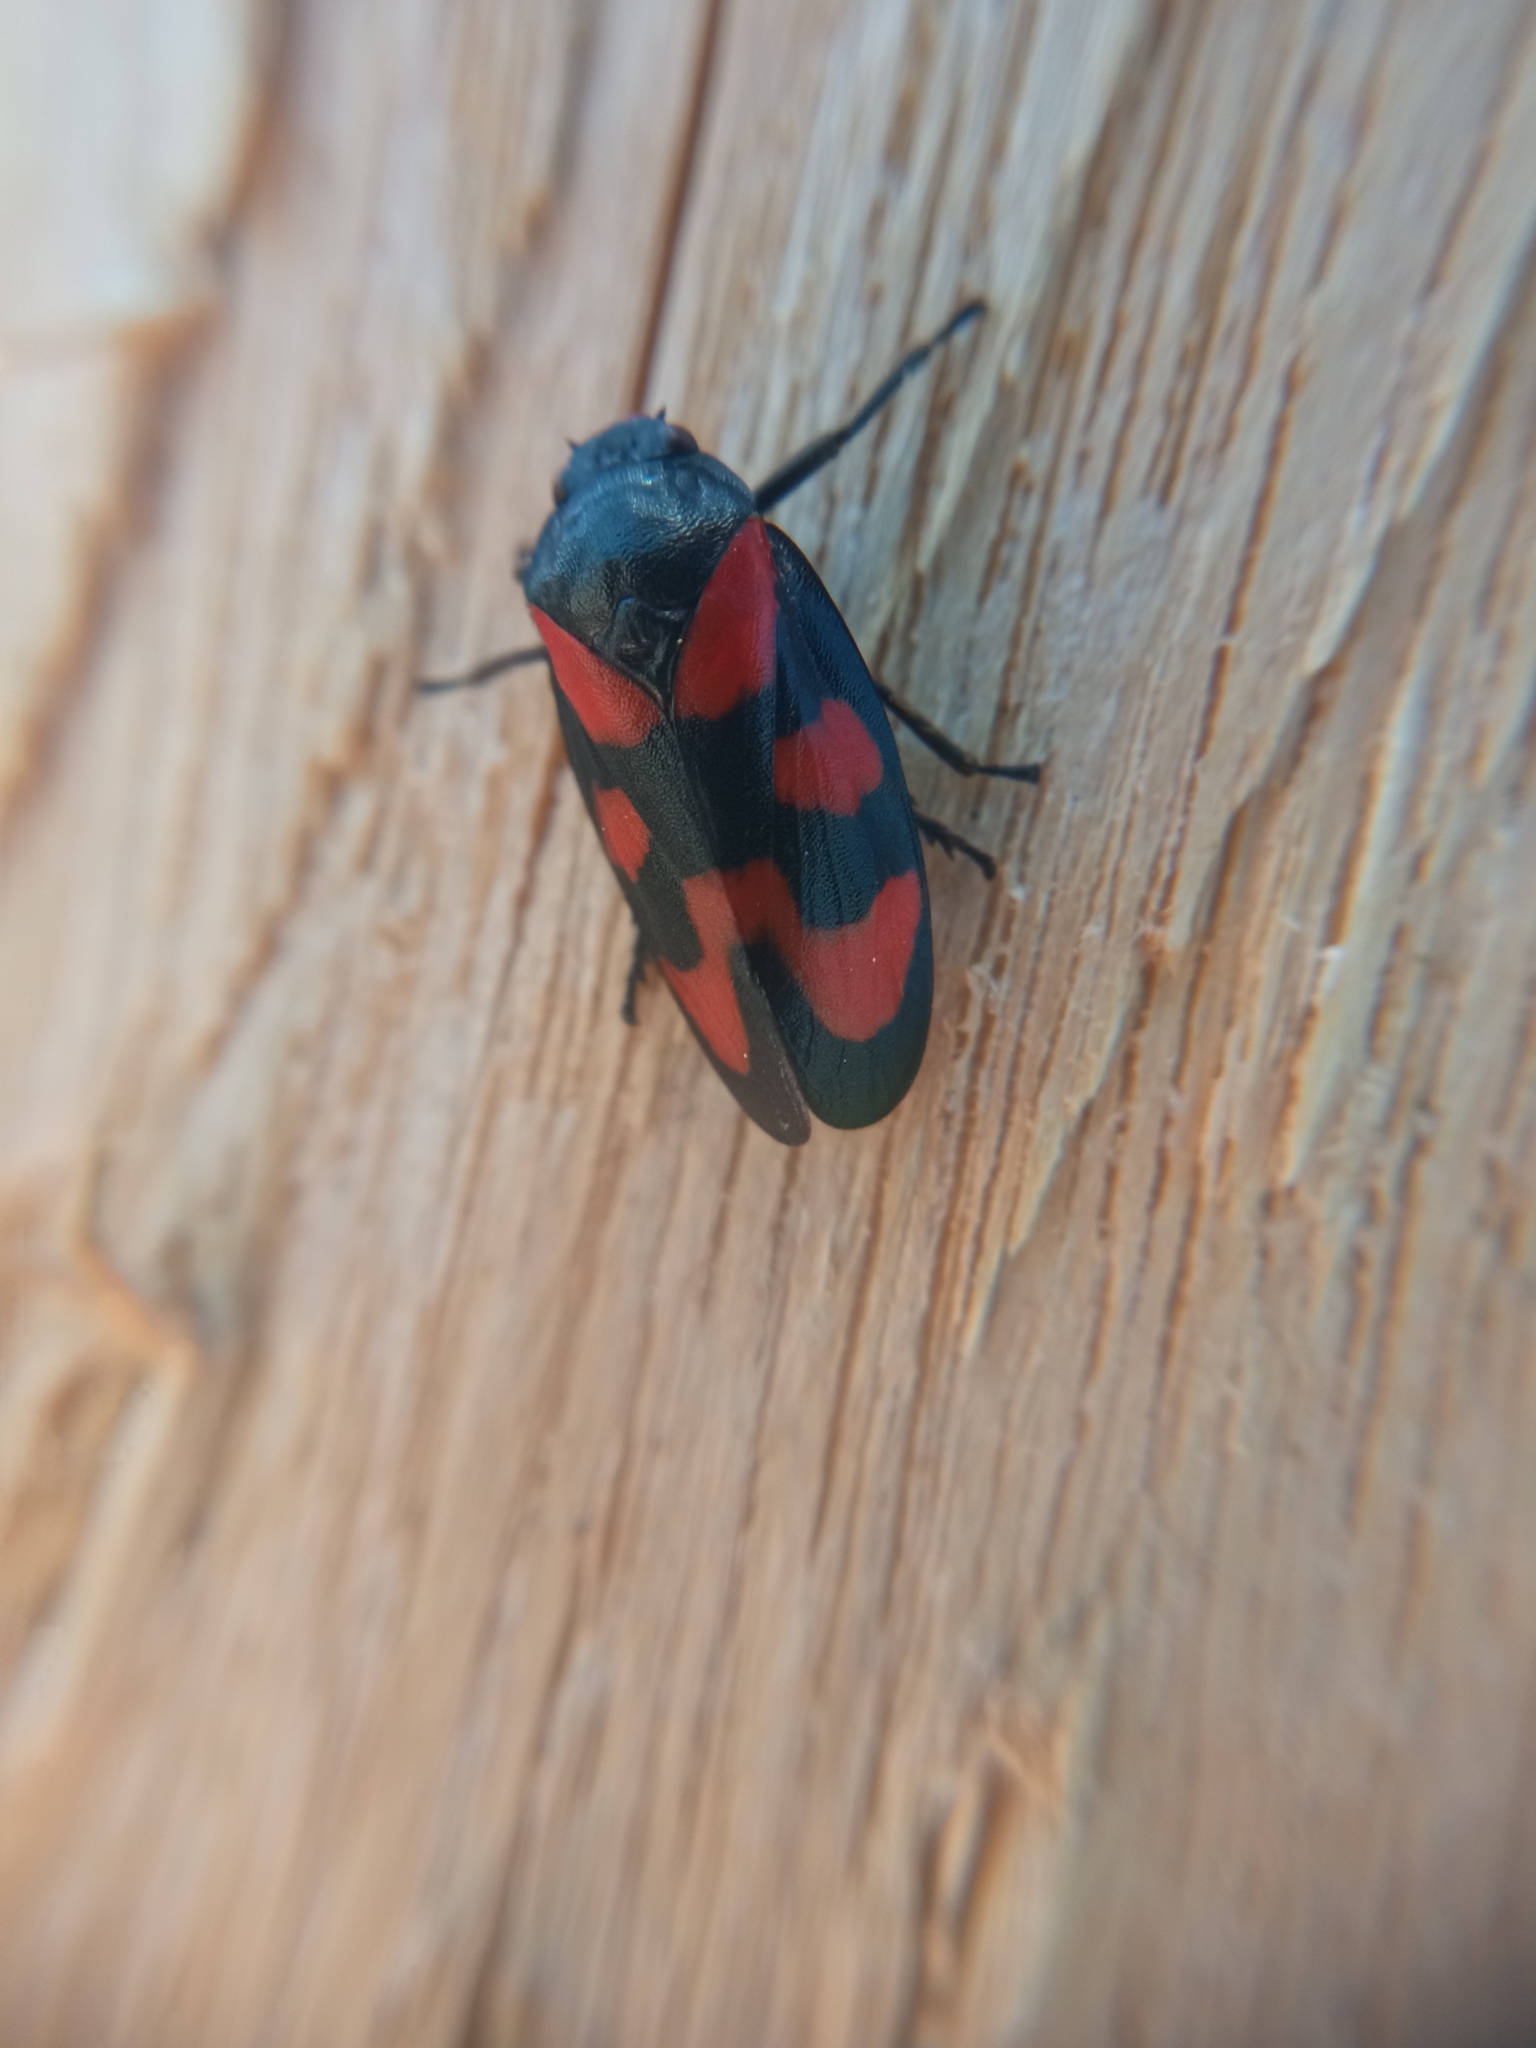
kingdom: Animalia
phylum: Arthropoda
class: Insecta
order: Hemiptera
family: Cercopidae
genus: Cercopis
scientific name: Cercopis vulnerata
